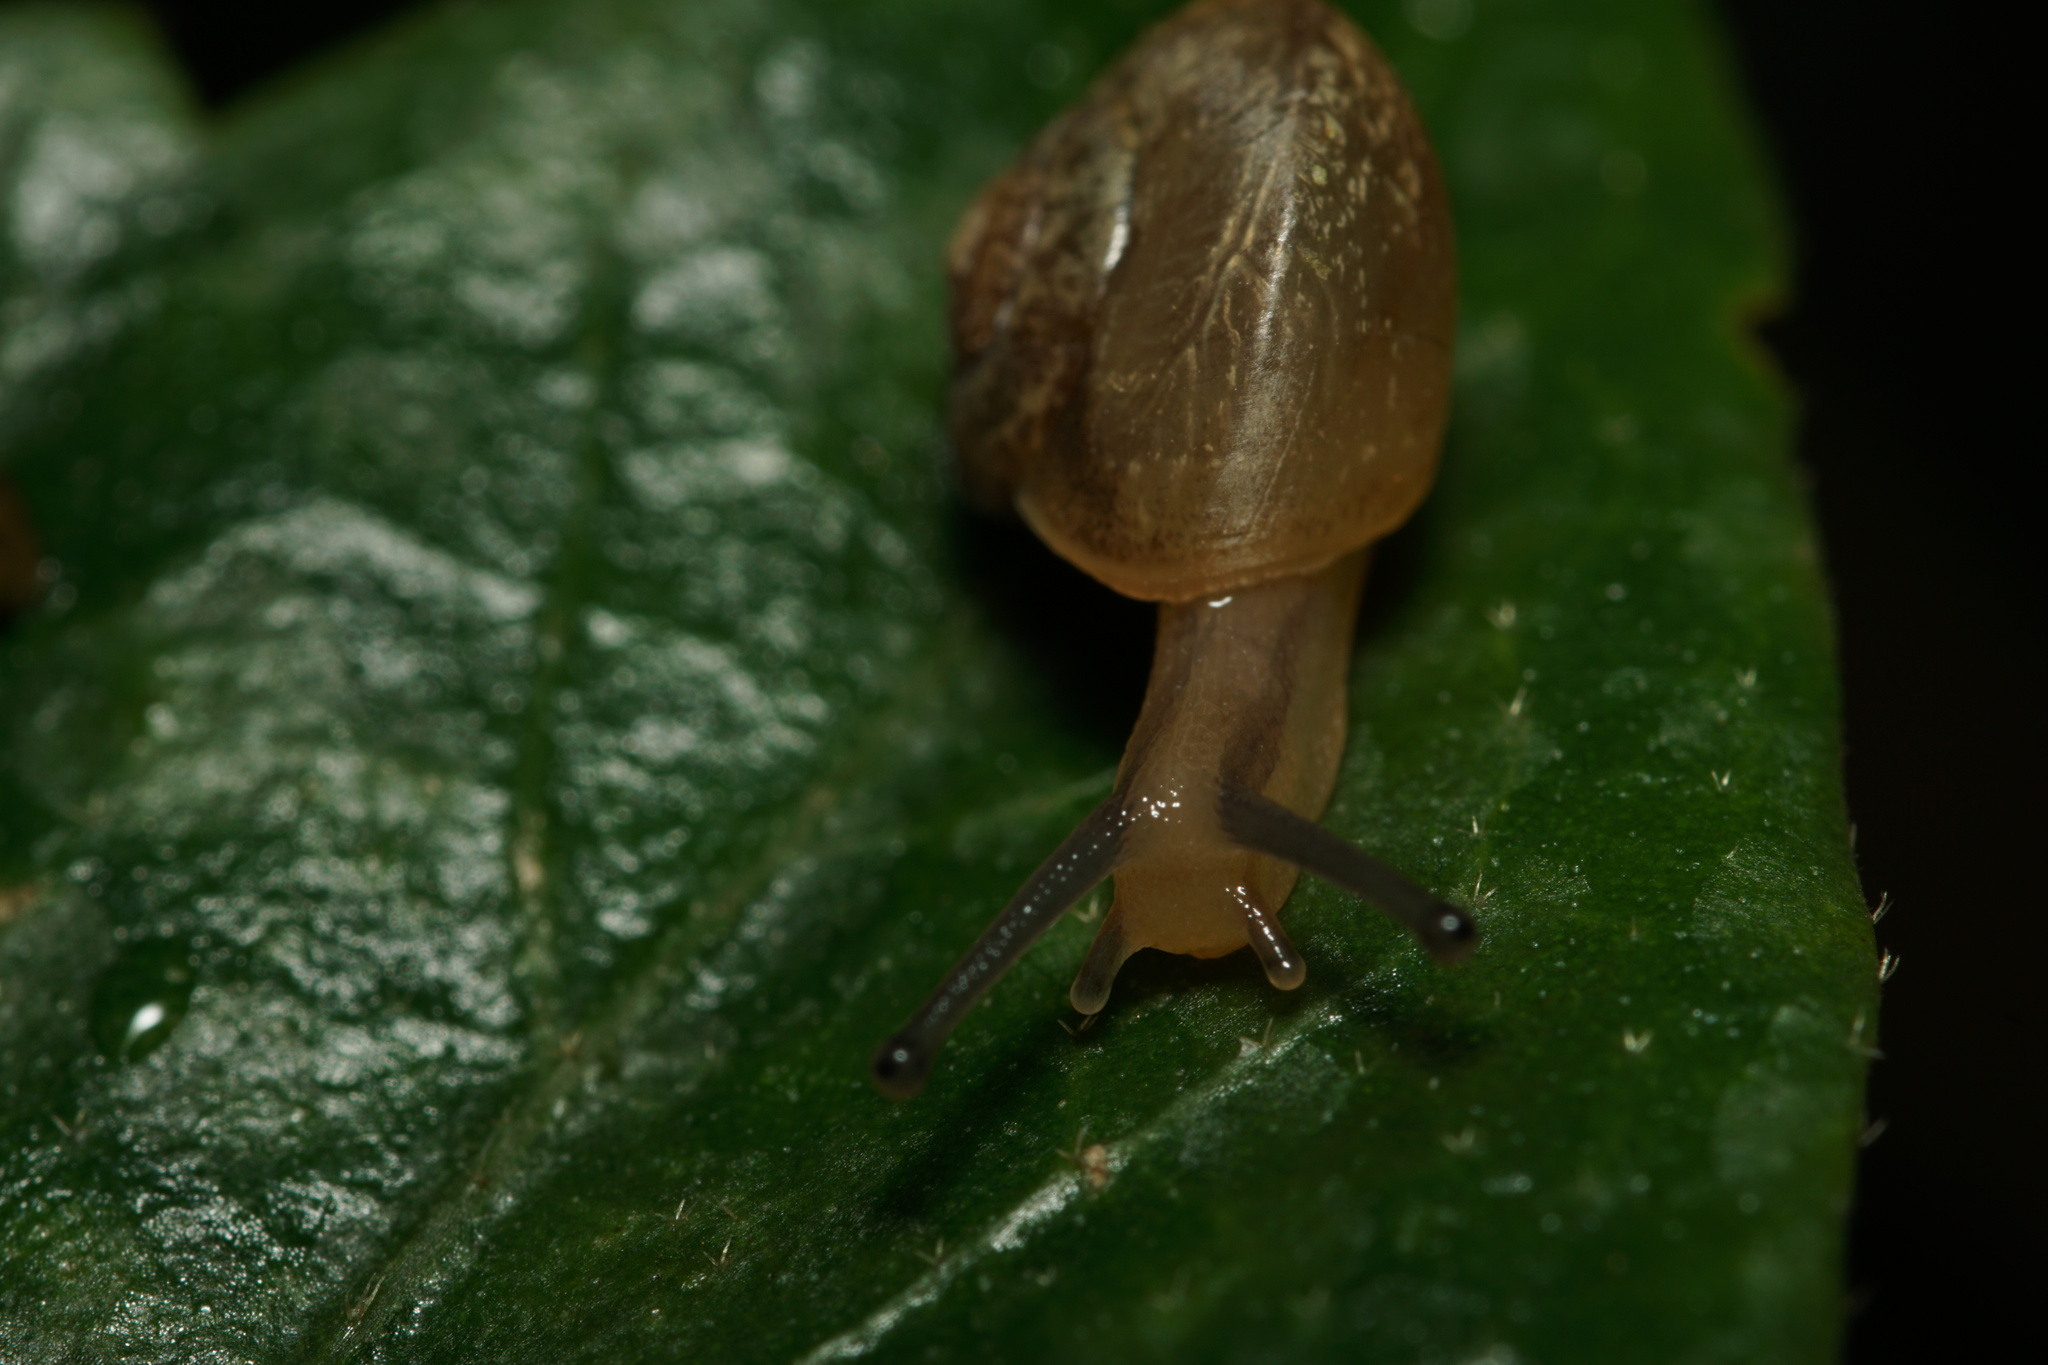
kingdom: Animalia
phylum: Mollusca
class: Gastropoda
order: Stylommatophora
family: Camaenidae
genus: Bradybaena
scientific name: Bradybaena similaris
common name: Asian trampsnail
